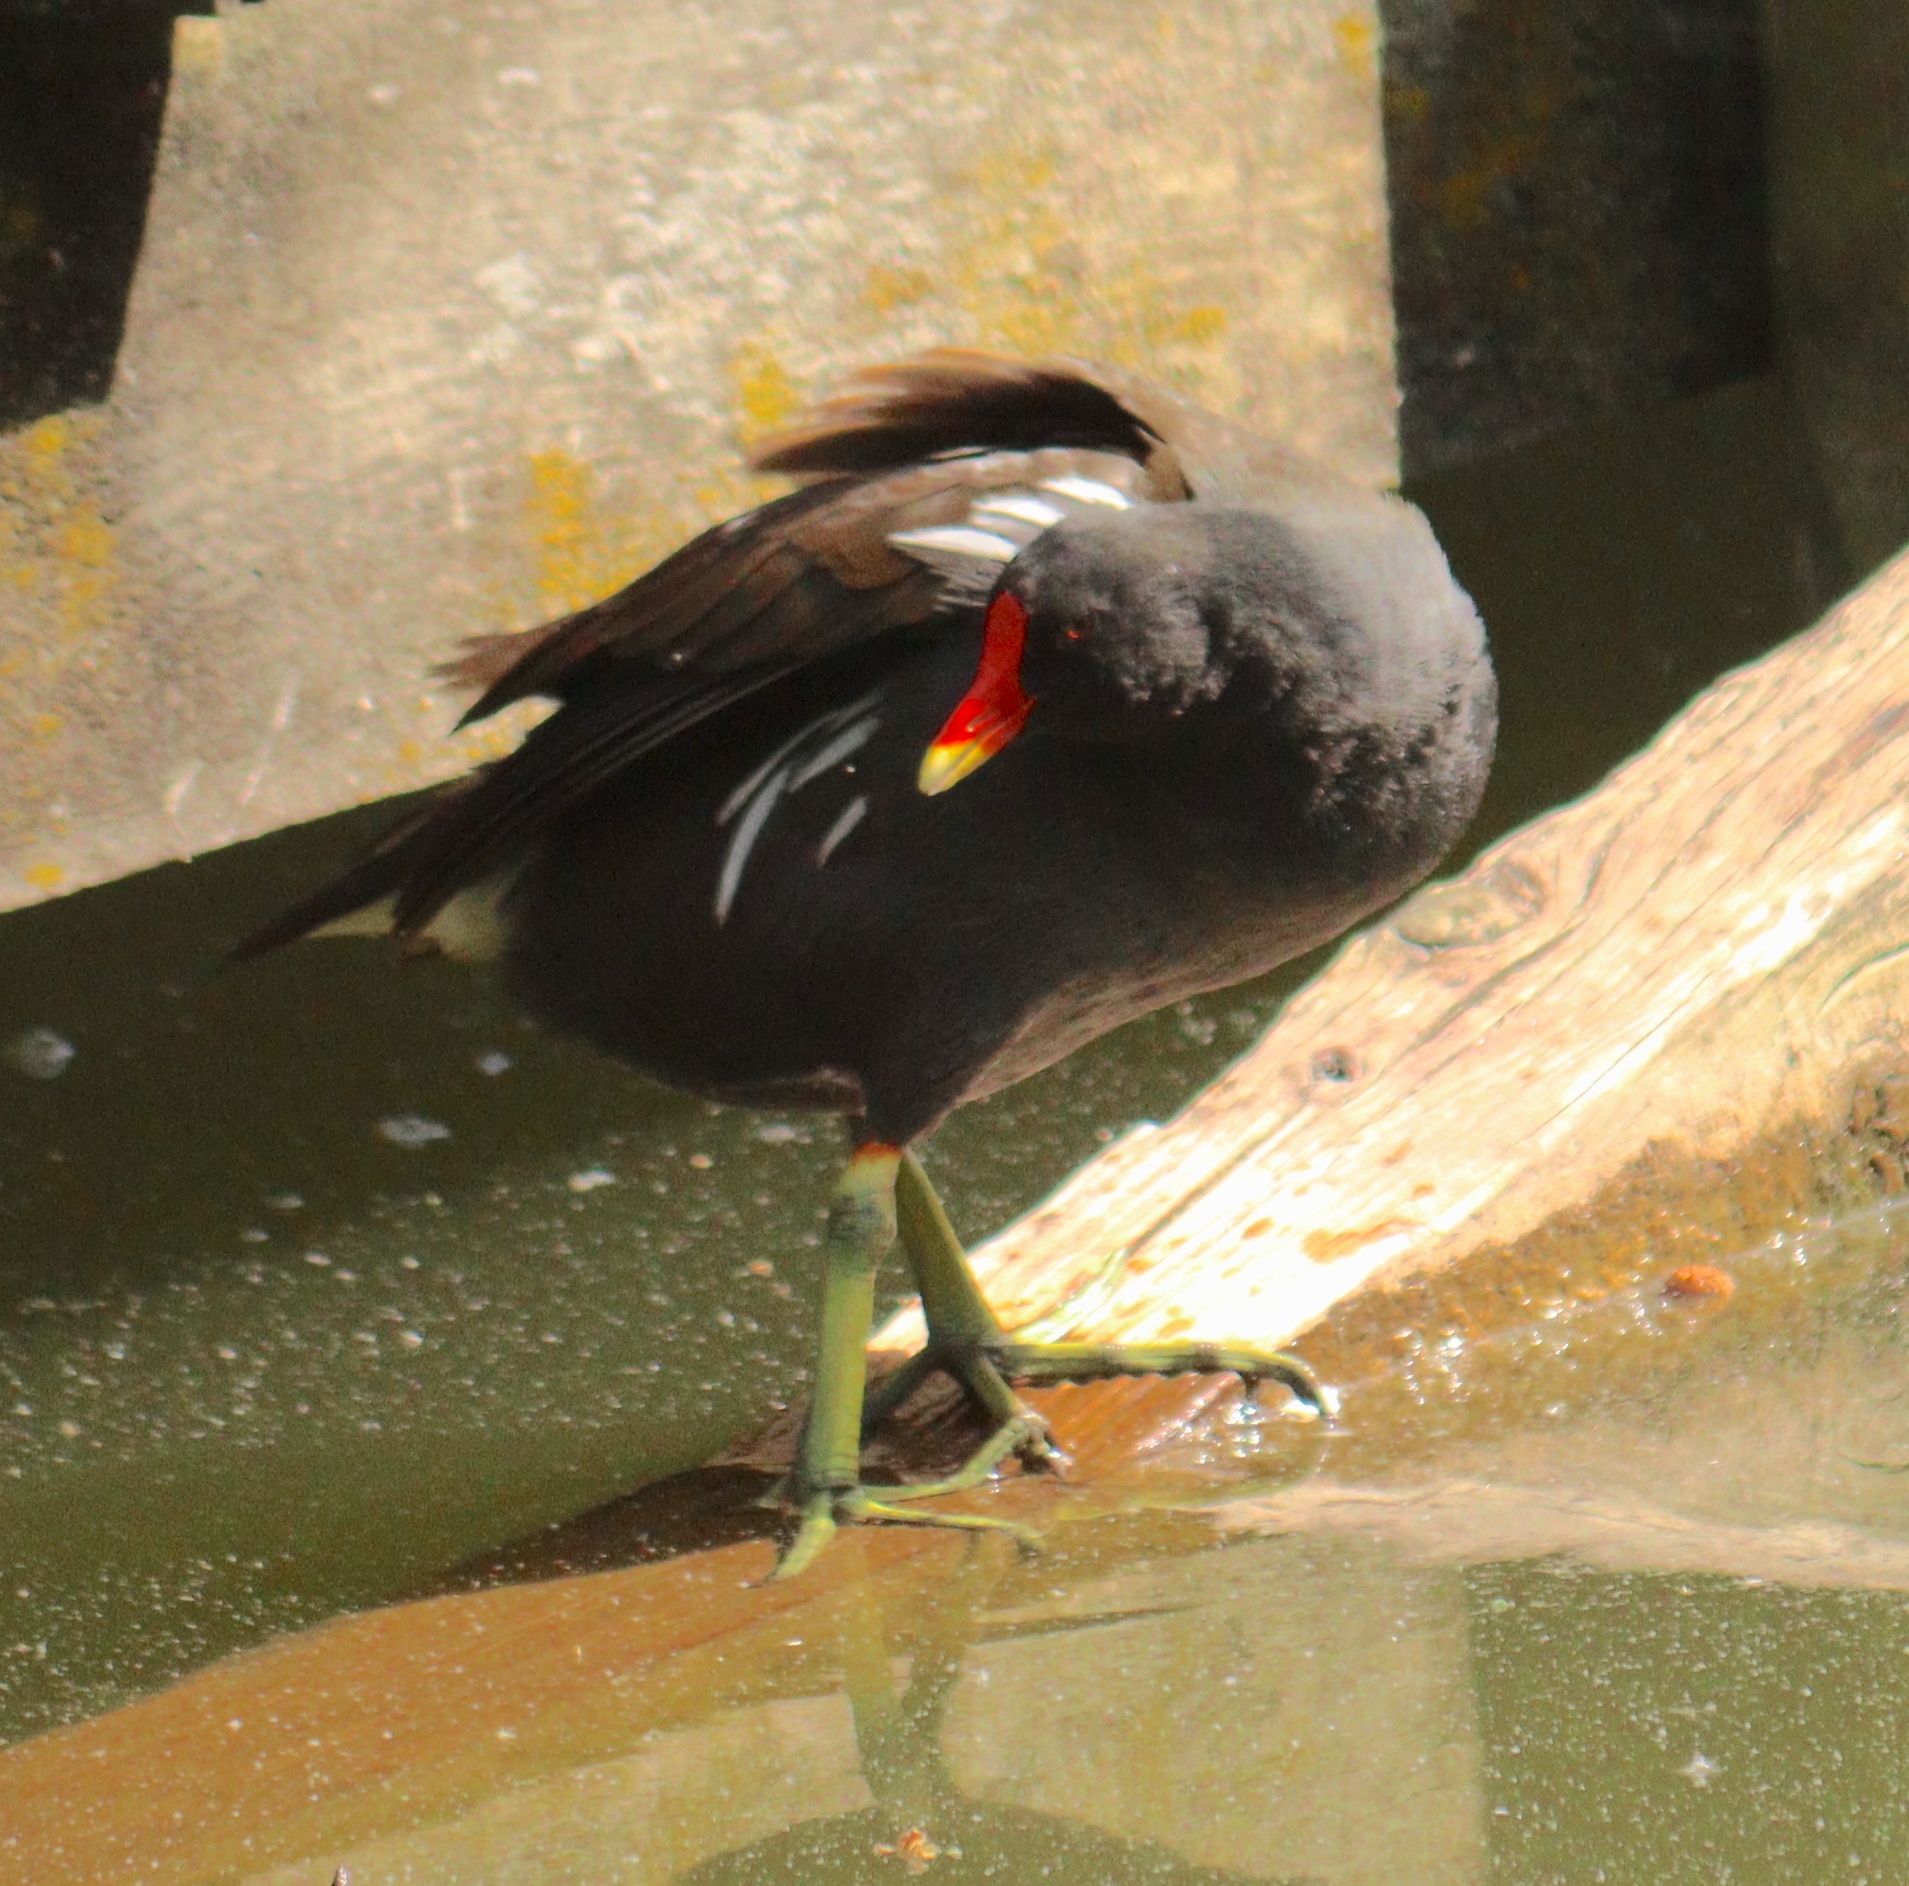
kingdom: Animalia
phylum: Chordata
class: Aves
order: Gruiformes
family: Rallidae
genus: Gallinula
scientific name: Gallinula chloropus
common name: Common moorhen
